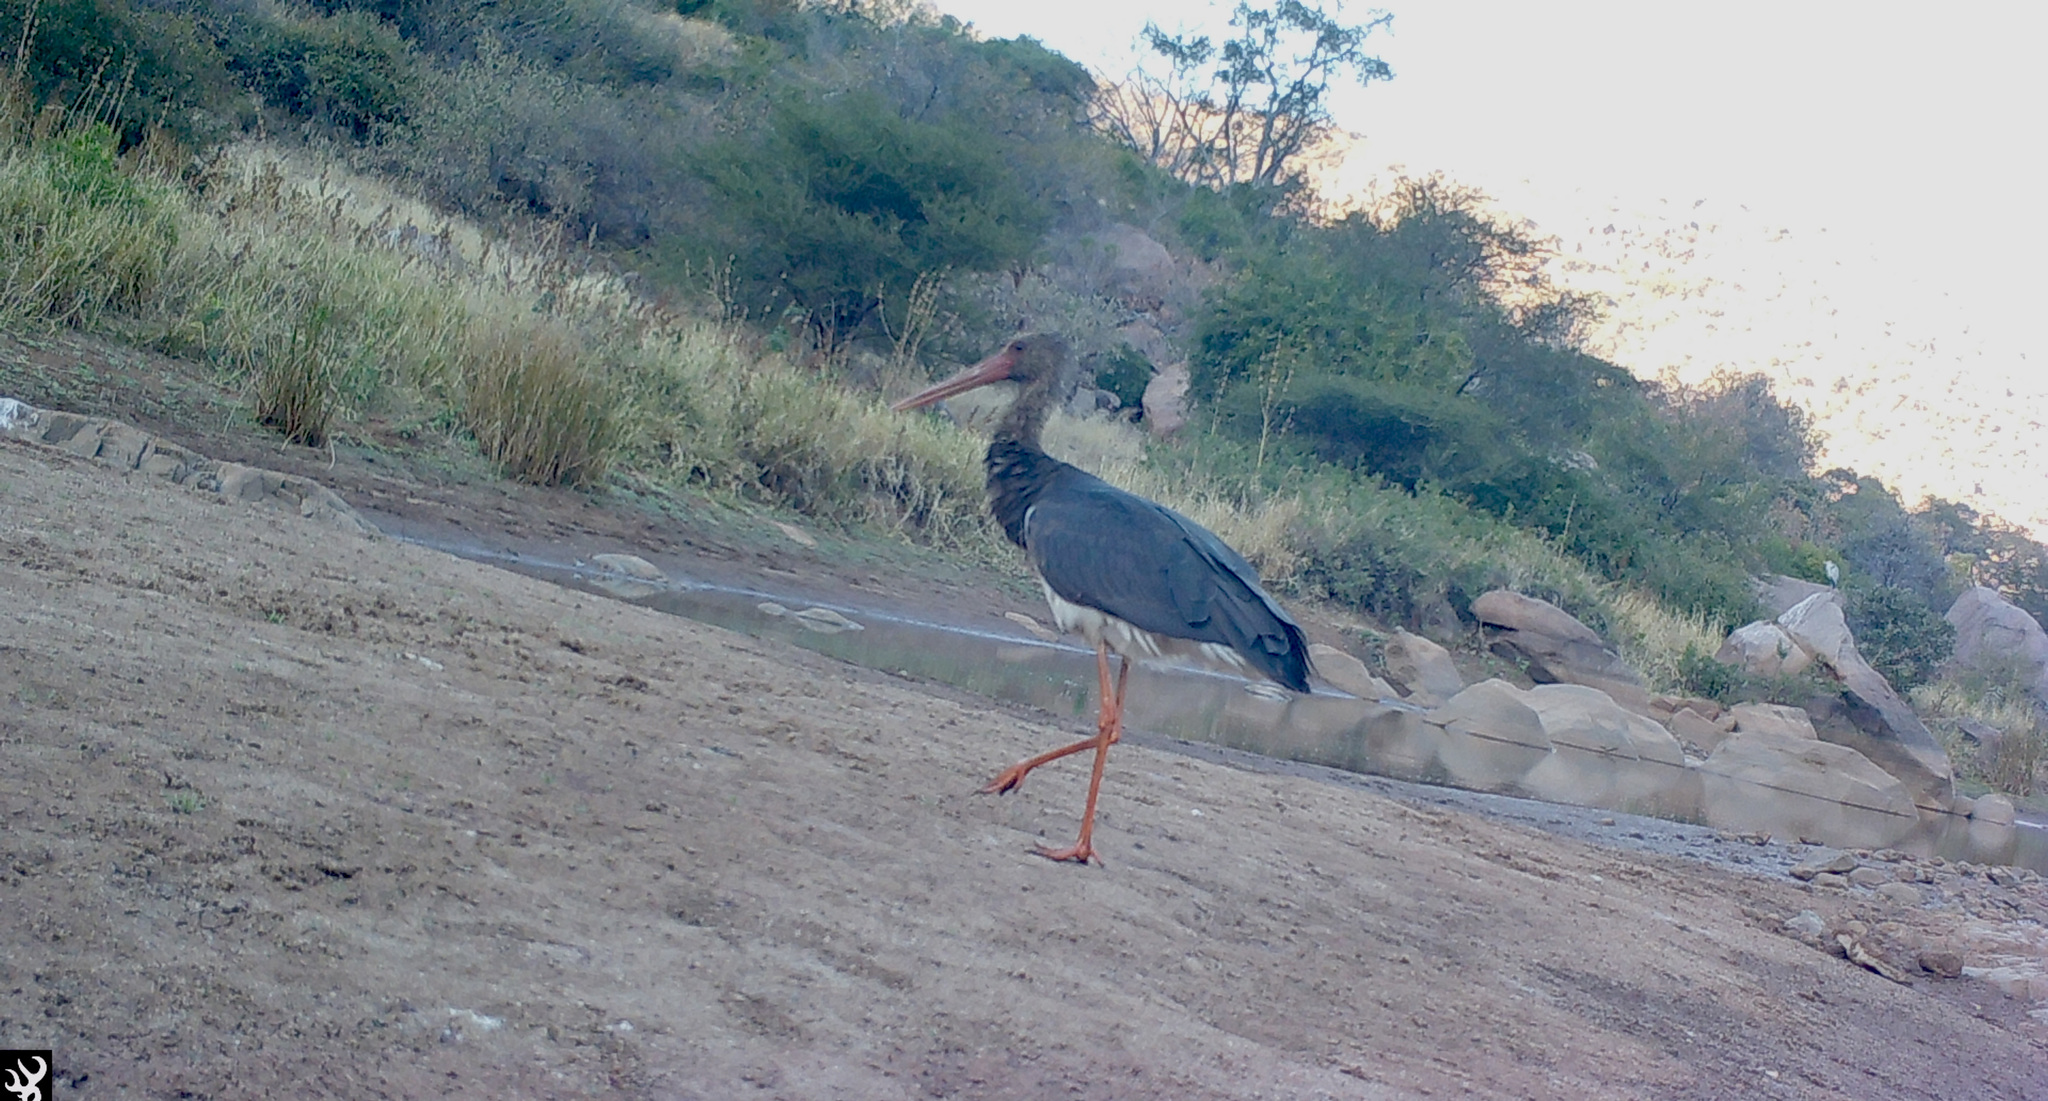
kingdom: Animalia
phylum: Chordata
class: Aves
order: Ciconiiformes
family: Ciconiidae
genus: Ciconia
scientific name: Ciconia nigra
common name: Black stork
